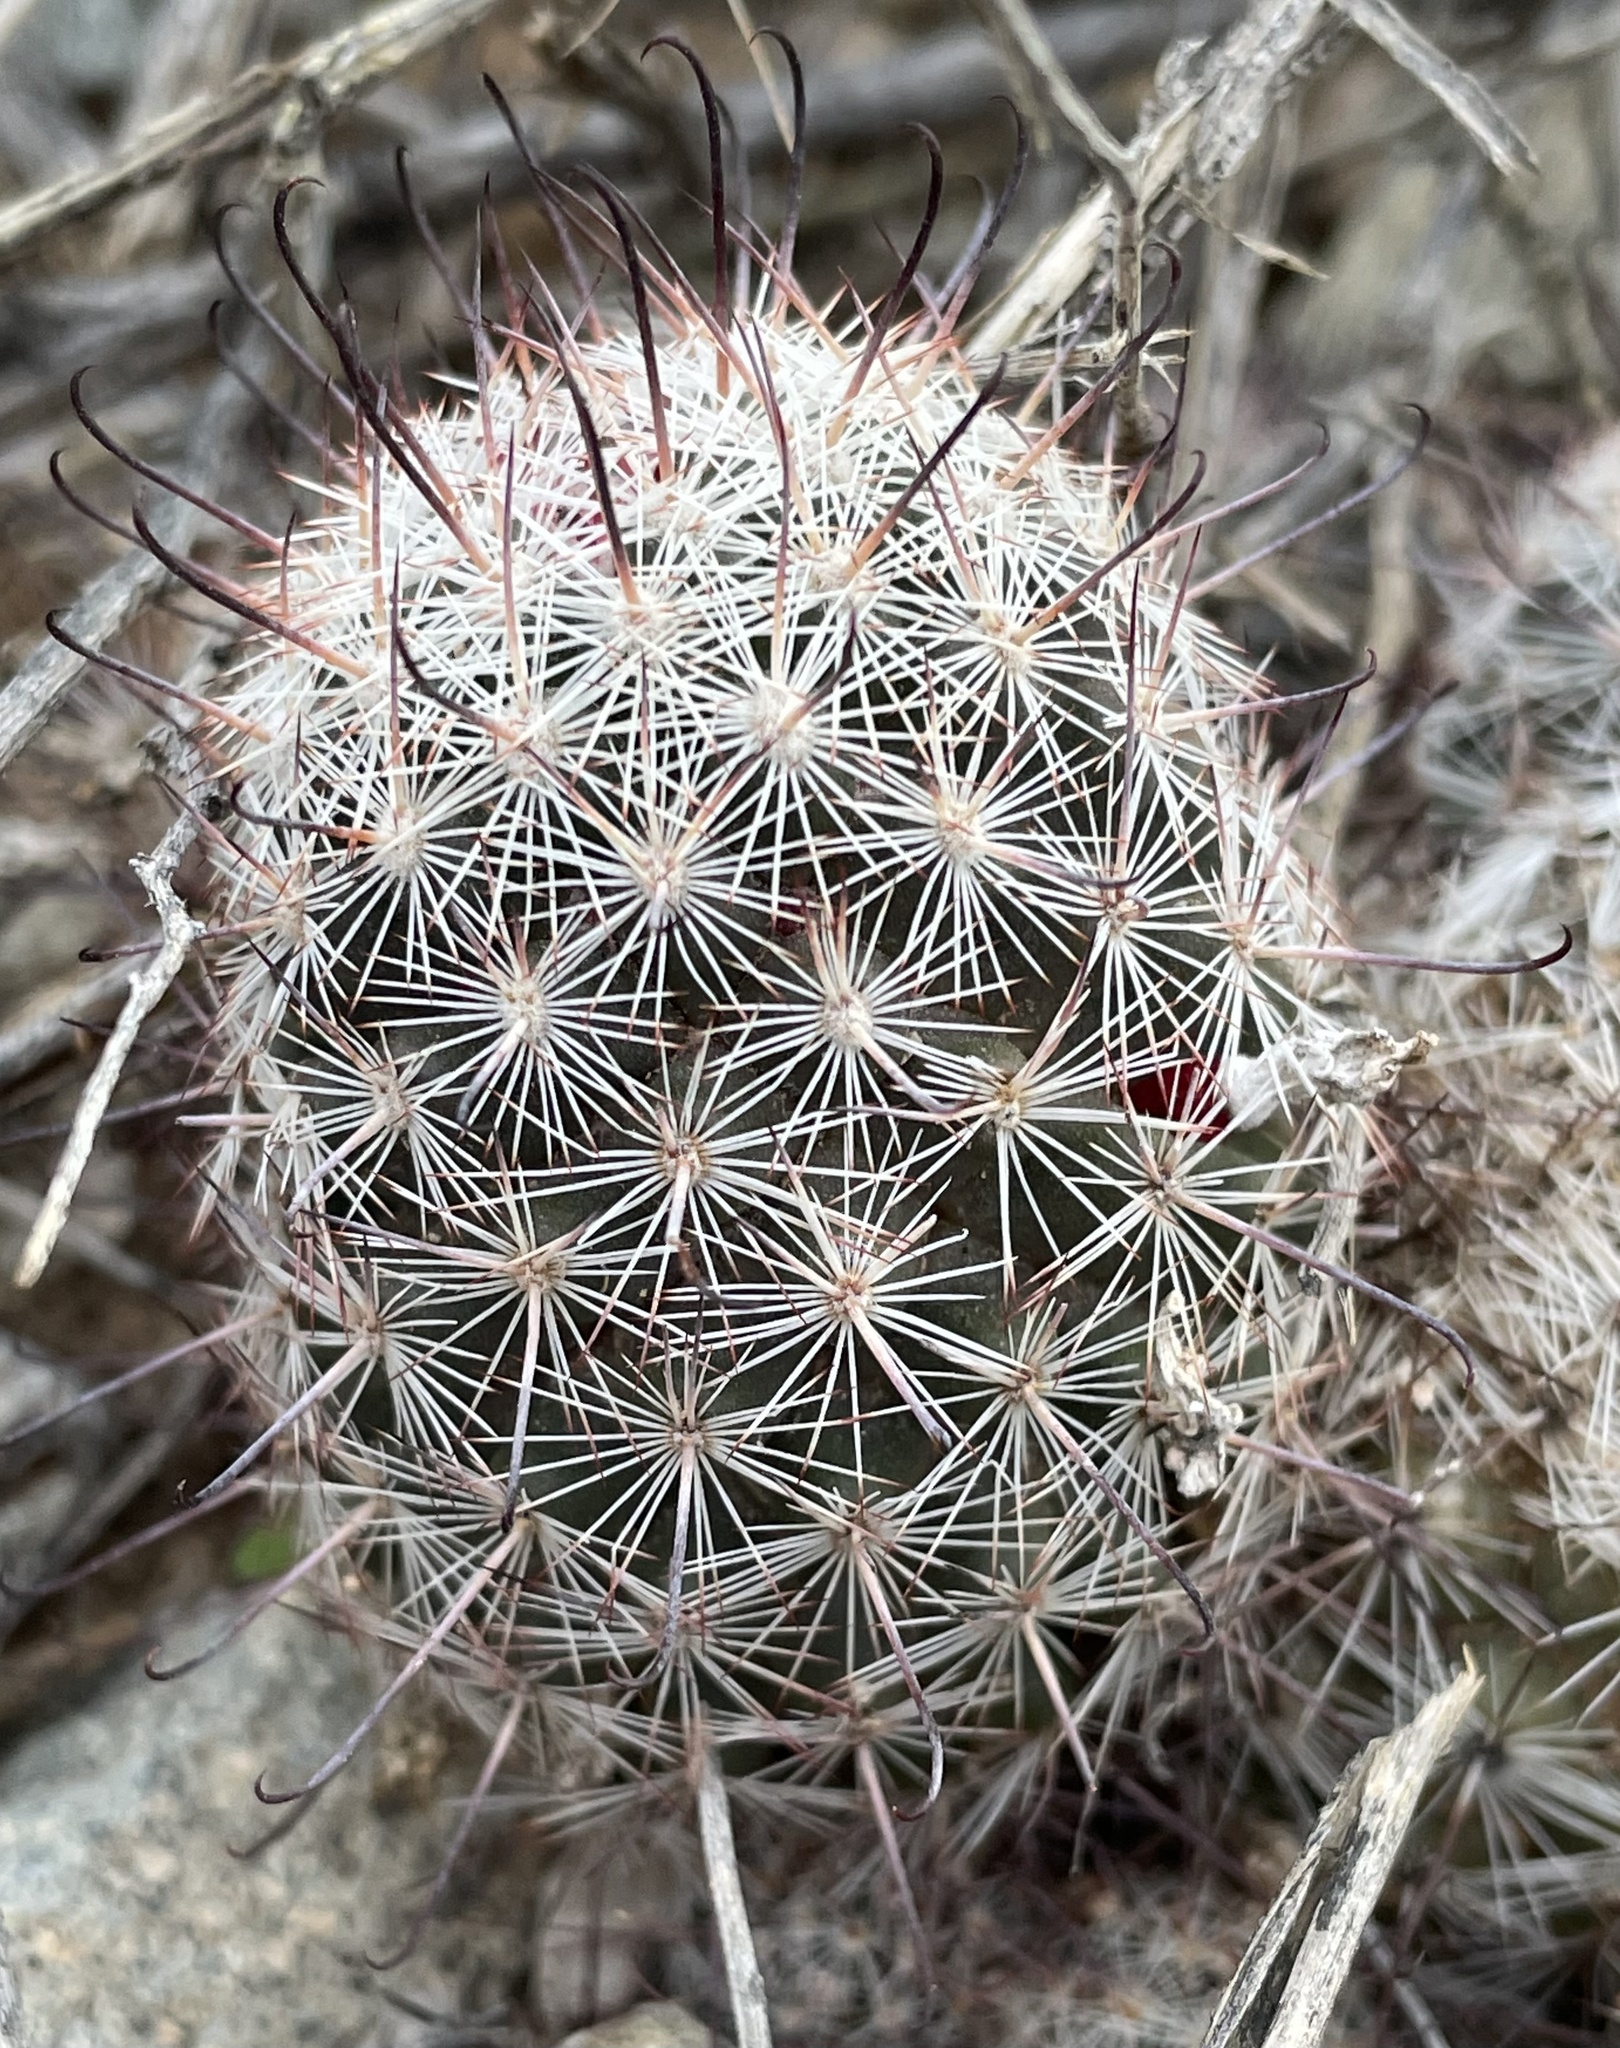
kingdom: Plantae
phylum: Tracheophyta
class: Magnoliopsida
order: Caryophyllales
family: Cactaceae
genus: Cochemiea
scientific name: Cochemiea grahamii
